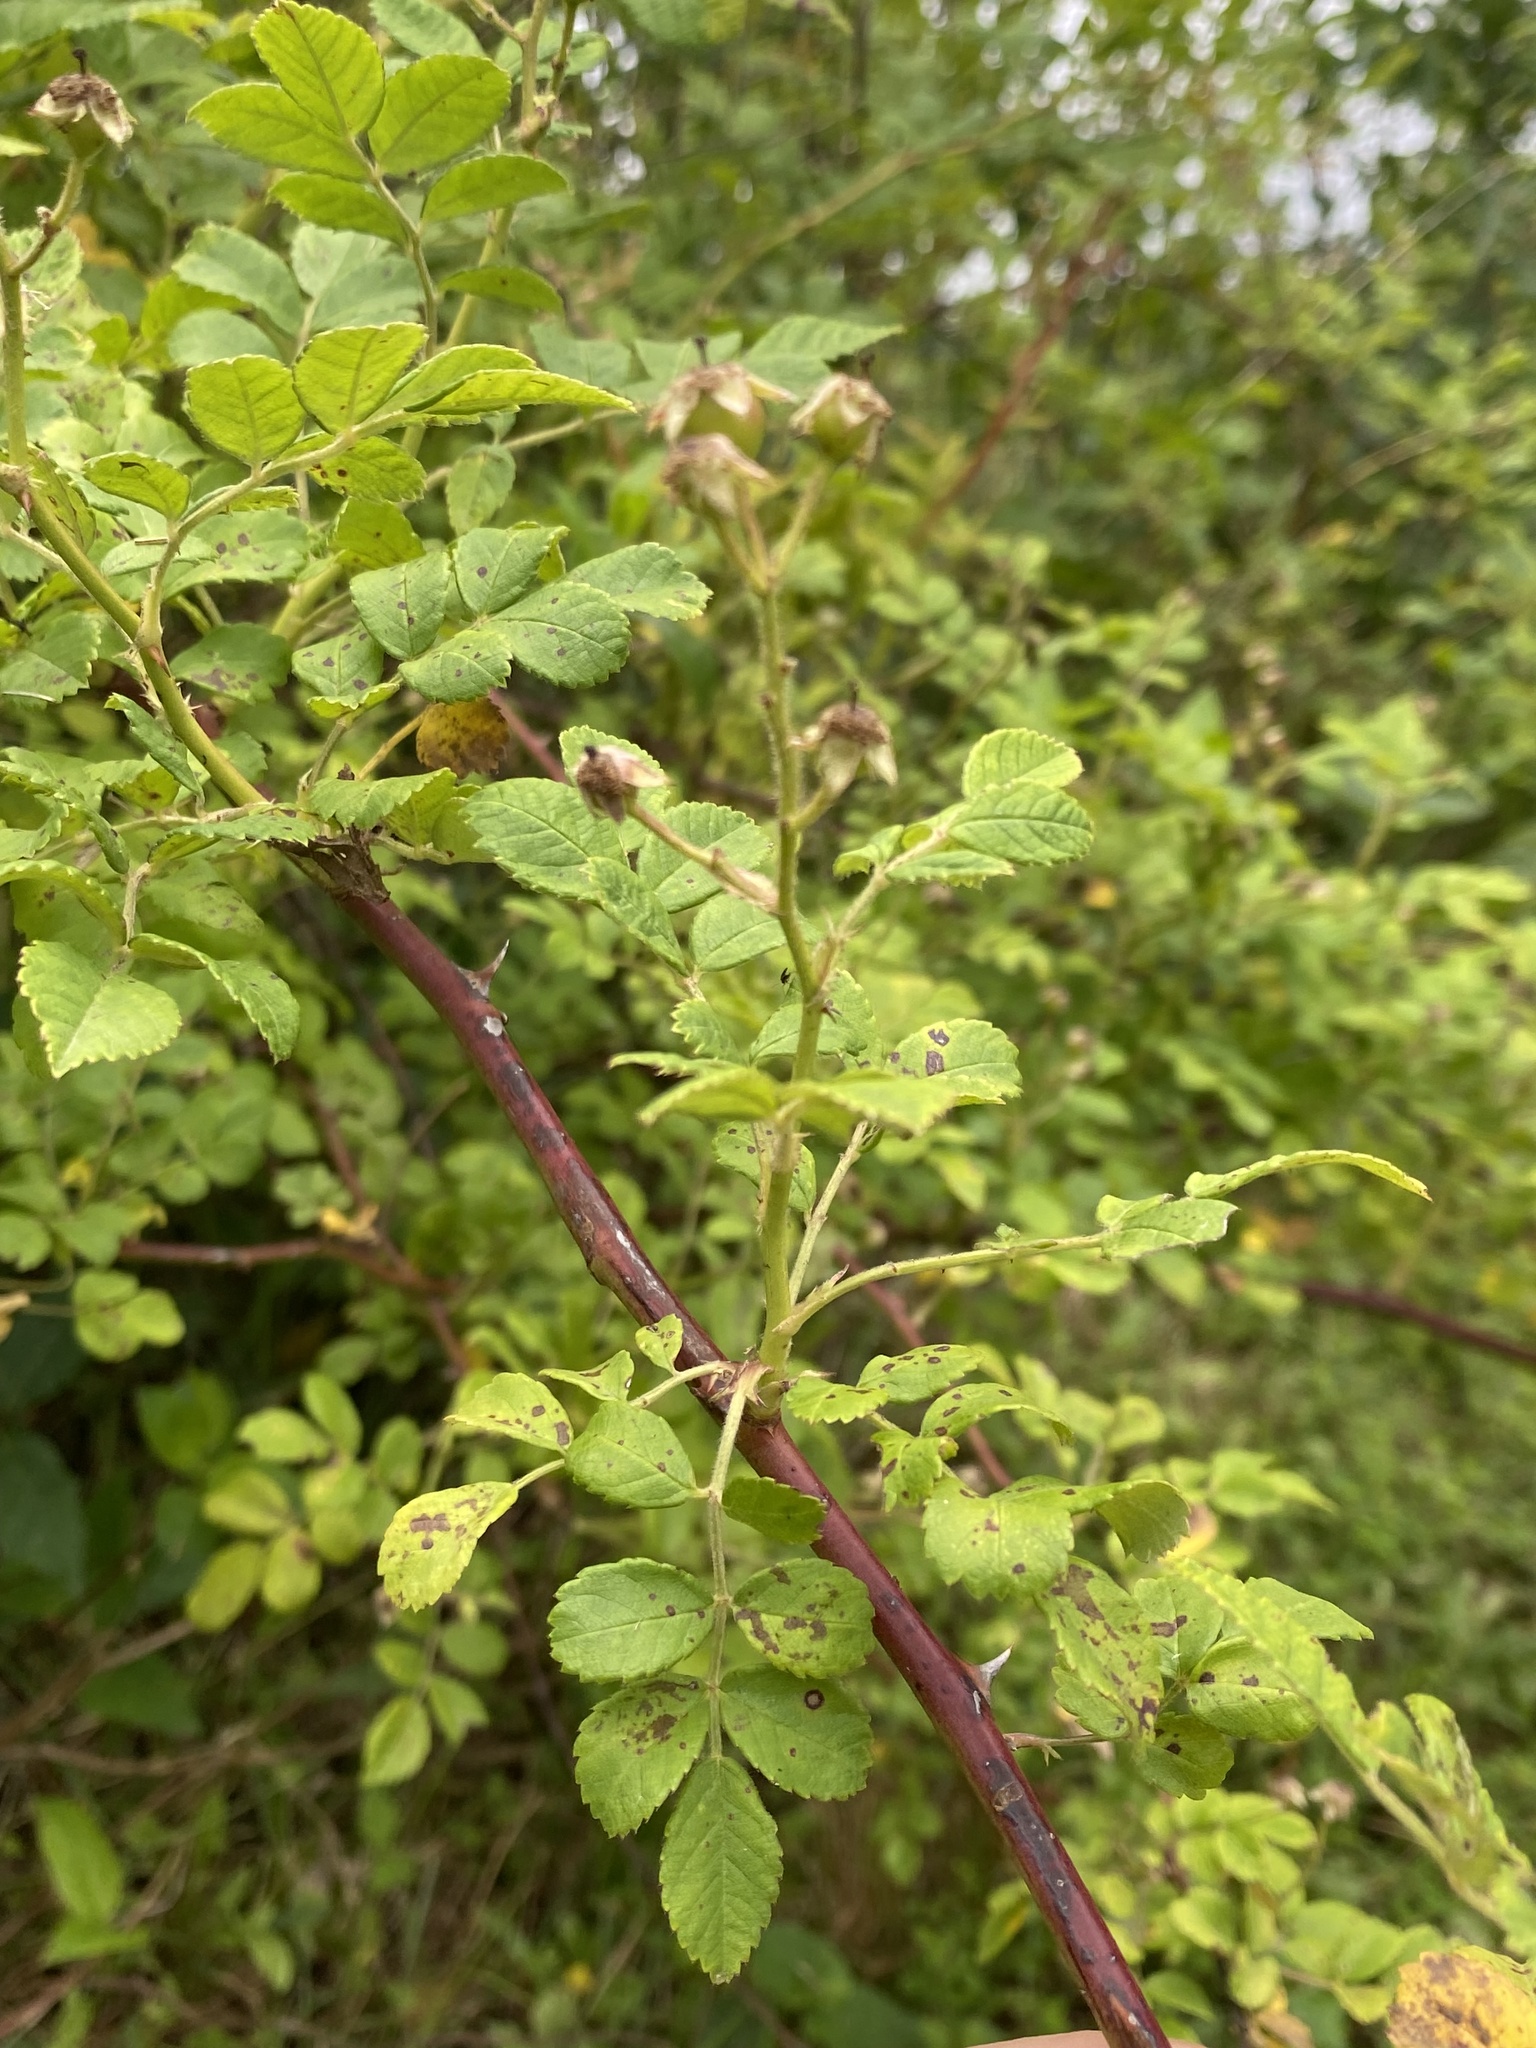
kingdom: Plantae
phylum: Tracheophyta
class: Magnoliopsida
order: Rosales
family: Rosaceae
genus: Rosa
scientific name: Rosa multiflora
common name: Multiflora rose
